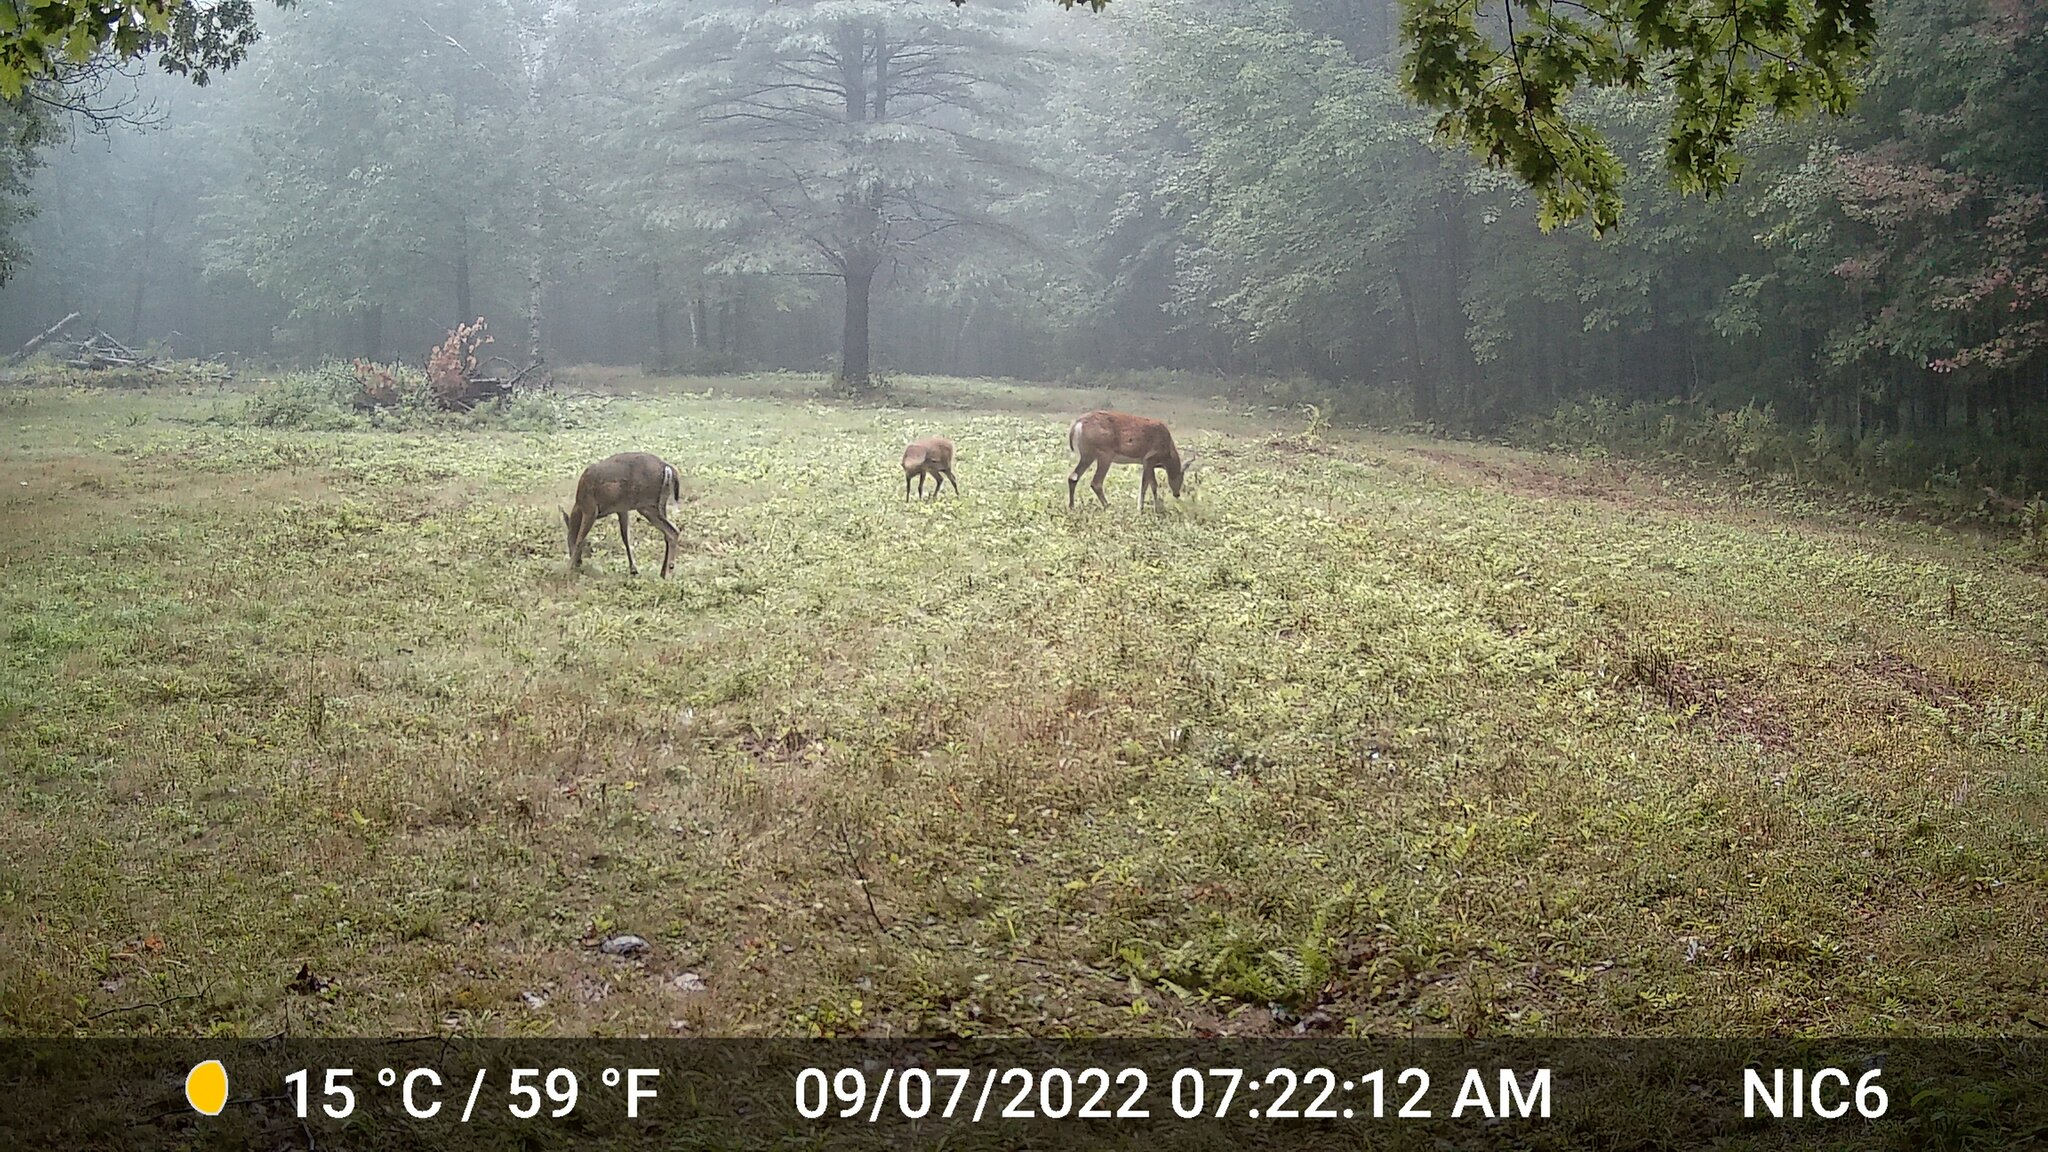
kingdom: Animalia
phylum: Chordata
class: Mammalia
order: Artiodactyla
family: Cervidae
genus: Odocoileus
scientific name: Odocoileus virginianus
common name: White-tailed deer
